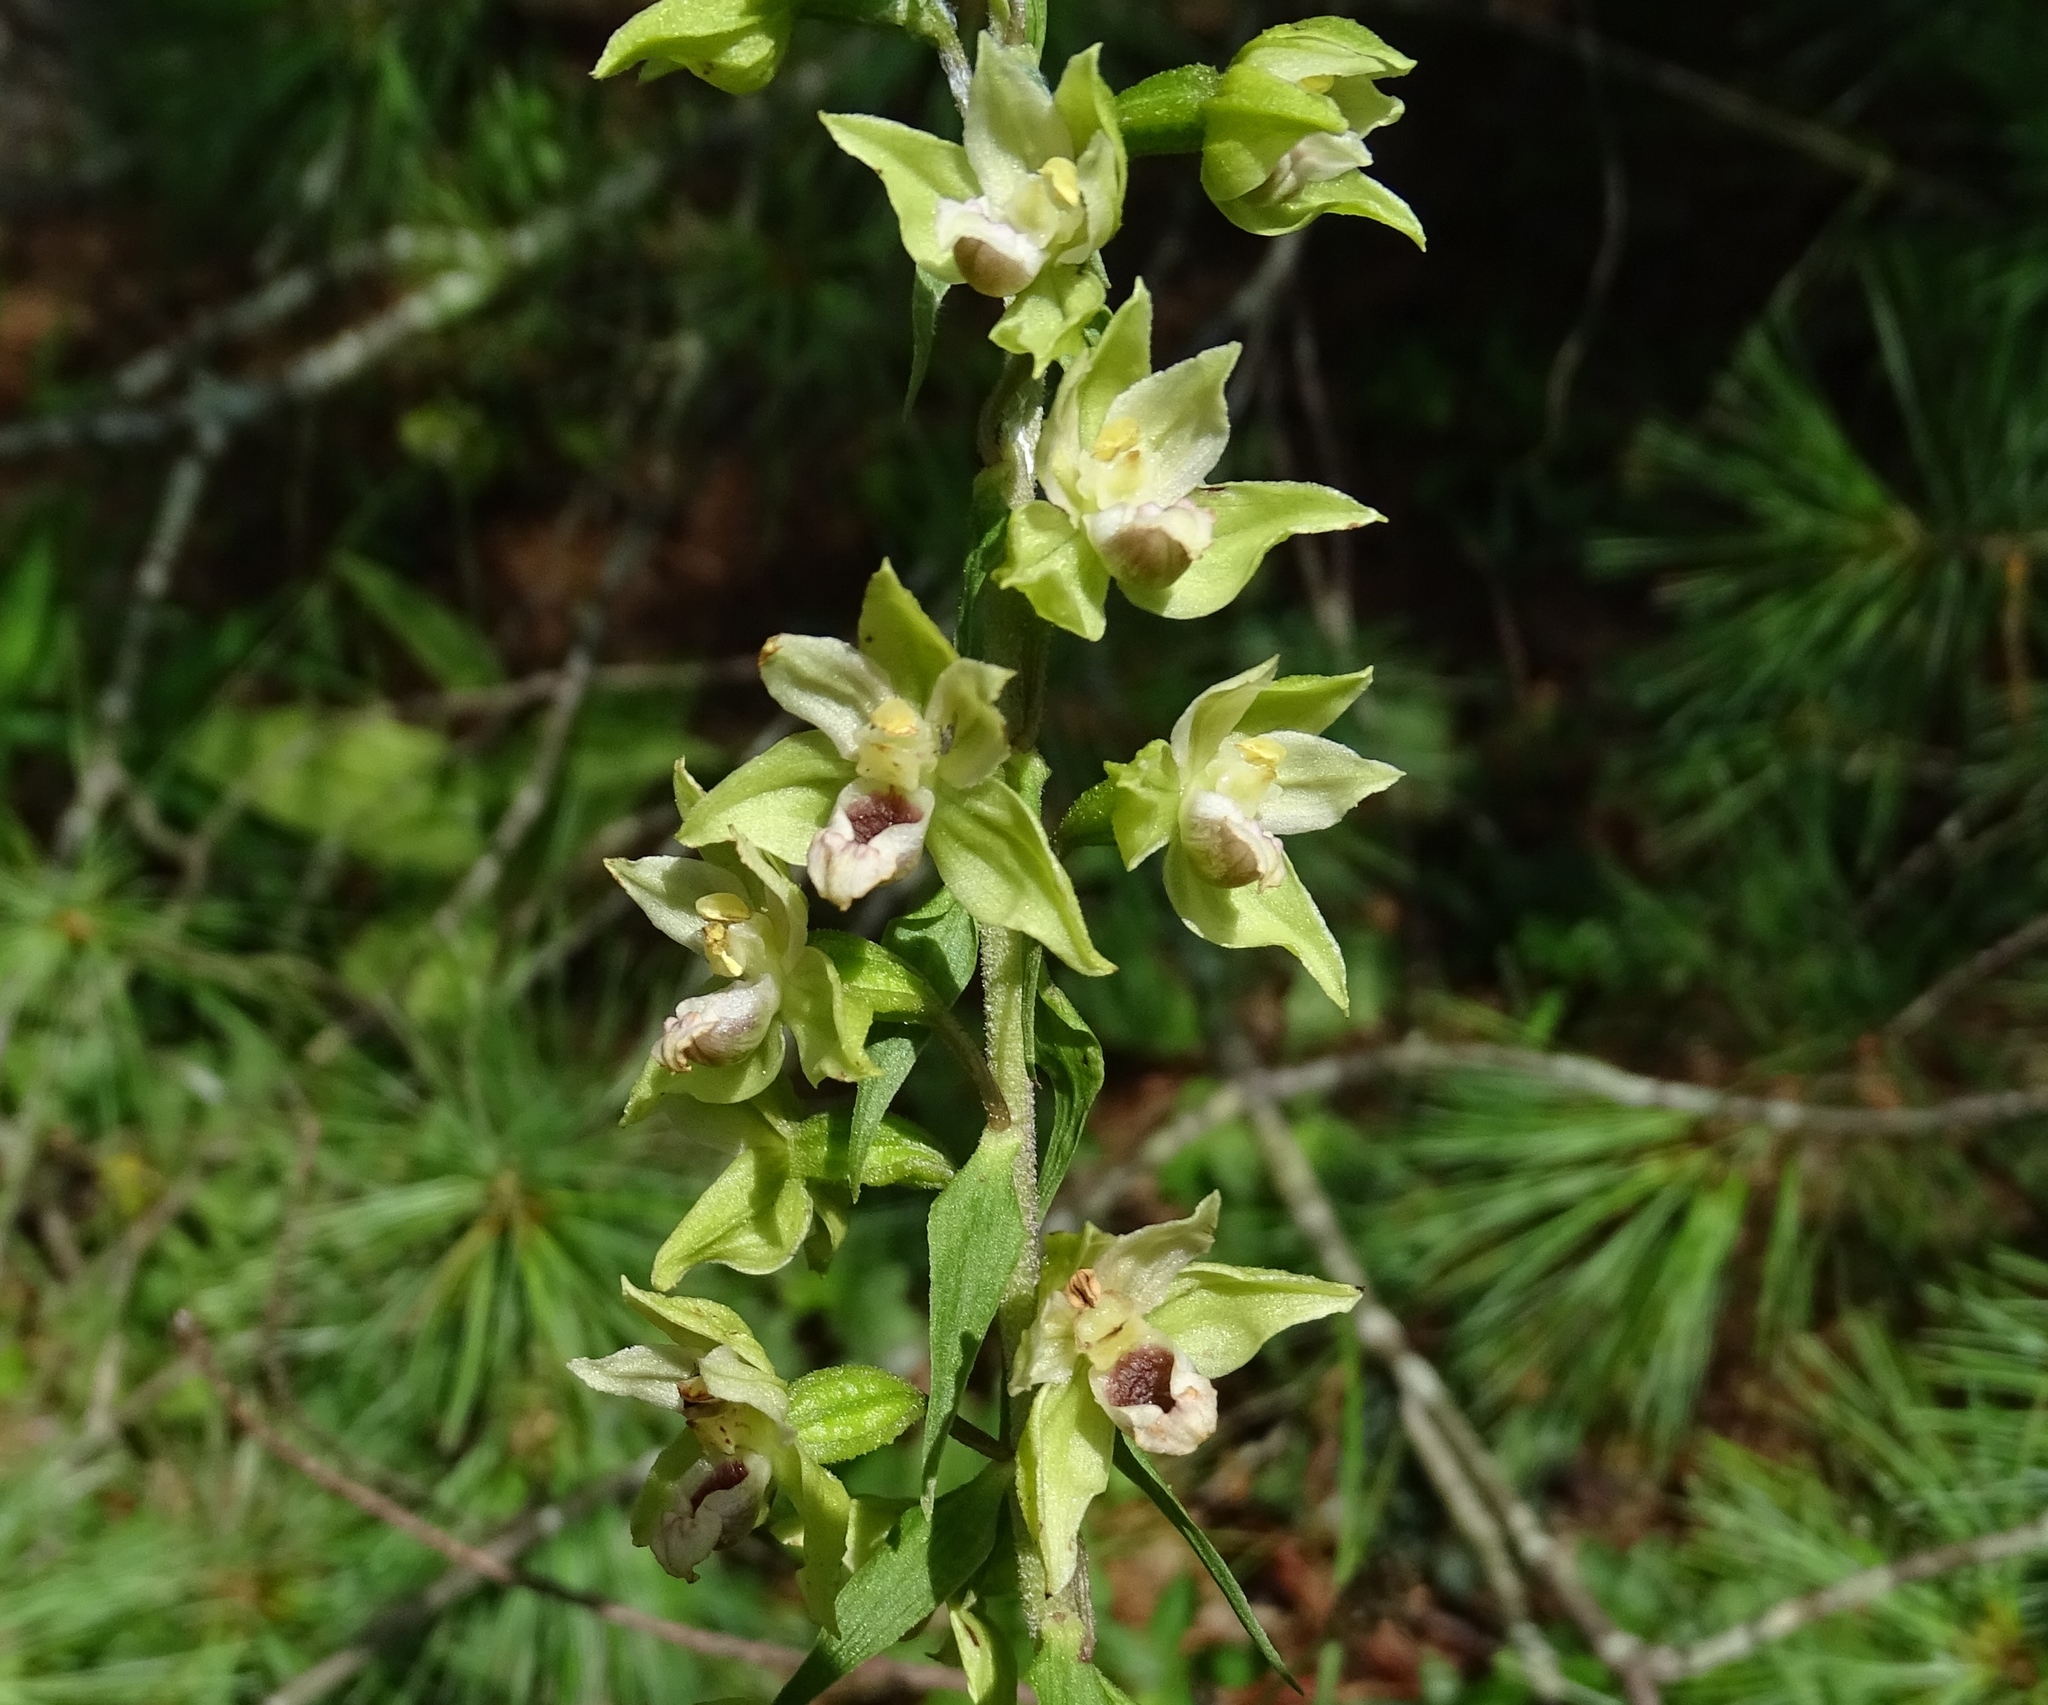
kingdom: Plantae
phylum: Tracheophyta
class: Liliopsida
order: Asparagales
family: Orchidaceae
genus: Epipactis
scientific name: Epipactis helleborine
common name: Broad-leaved helleborine
